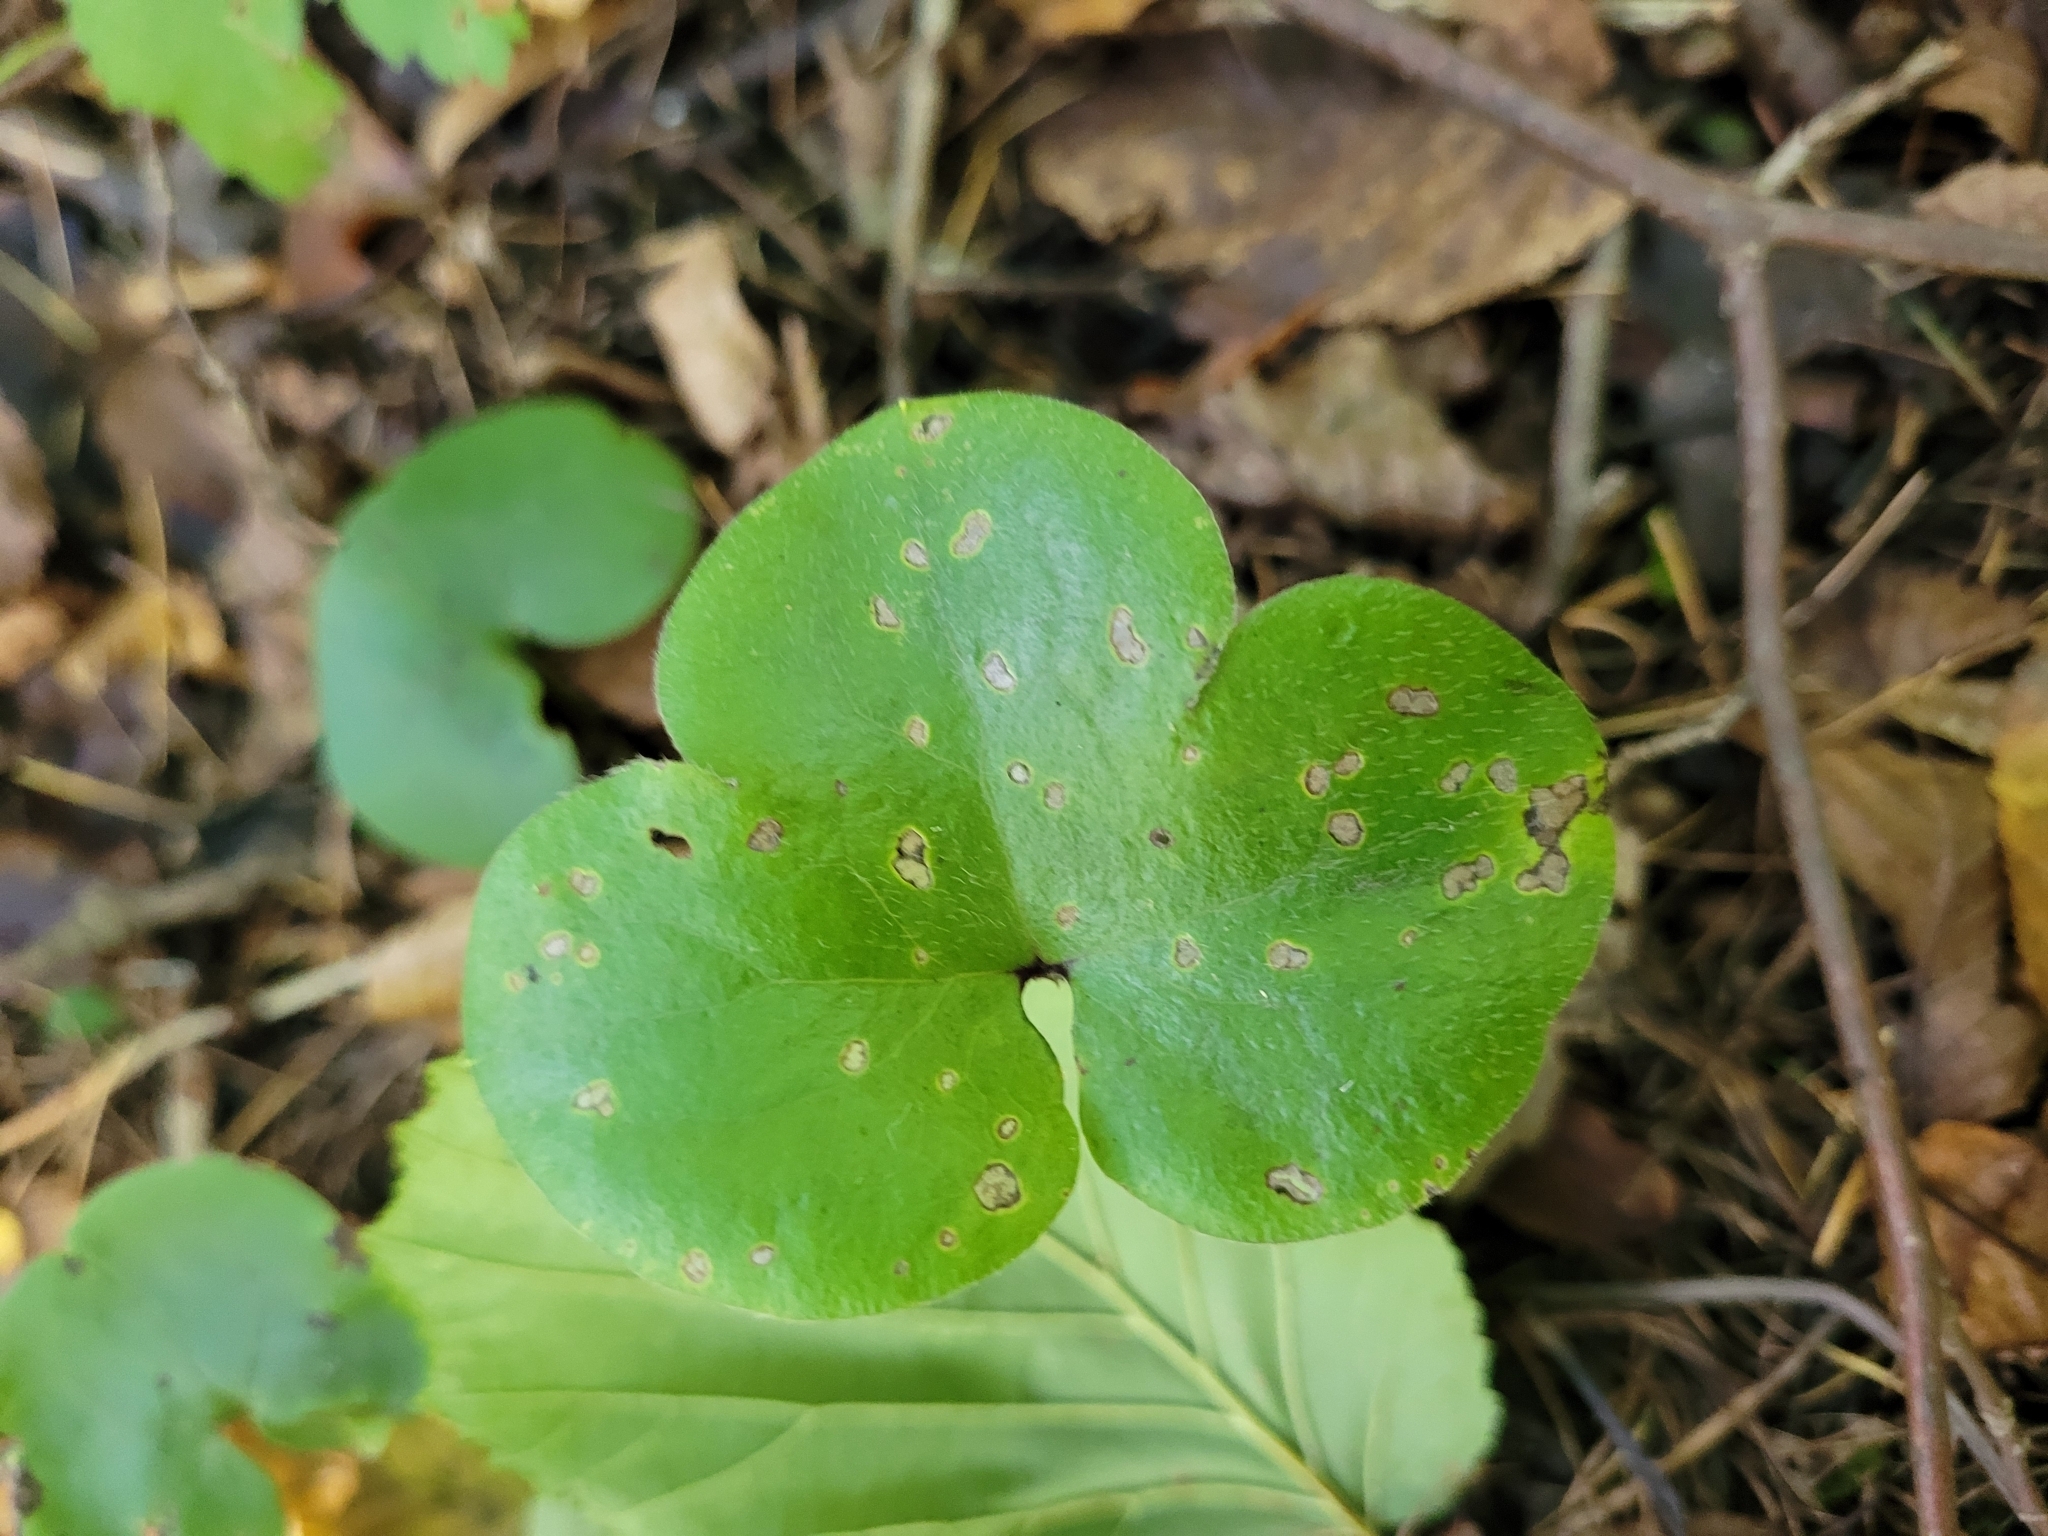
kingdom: Plantae
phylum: Tracheophyta
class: Magnoliopsida
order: Ranunculales
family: Ranunculaceae
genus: Hepatica
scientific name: Hepatica nobilis
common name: Liverleaf
